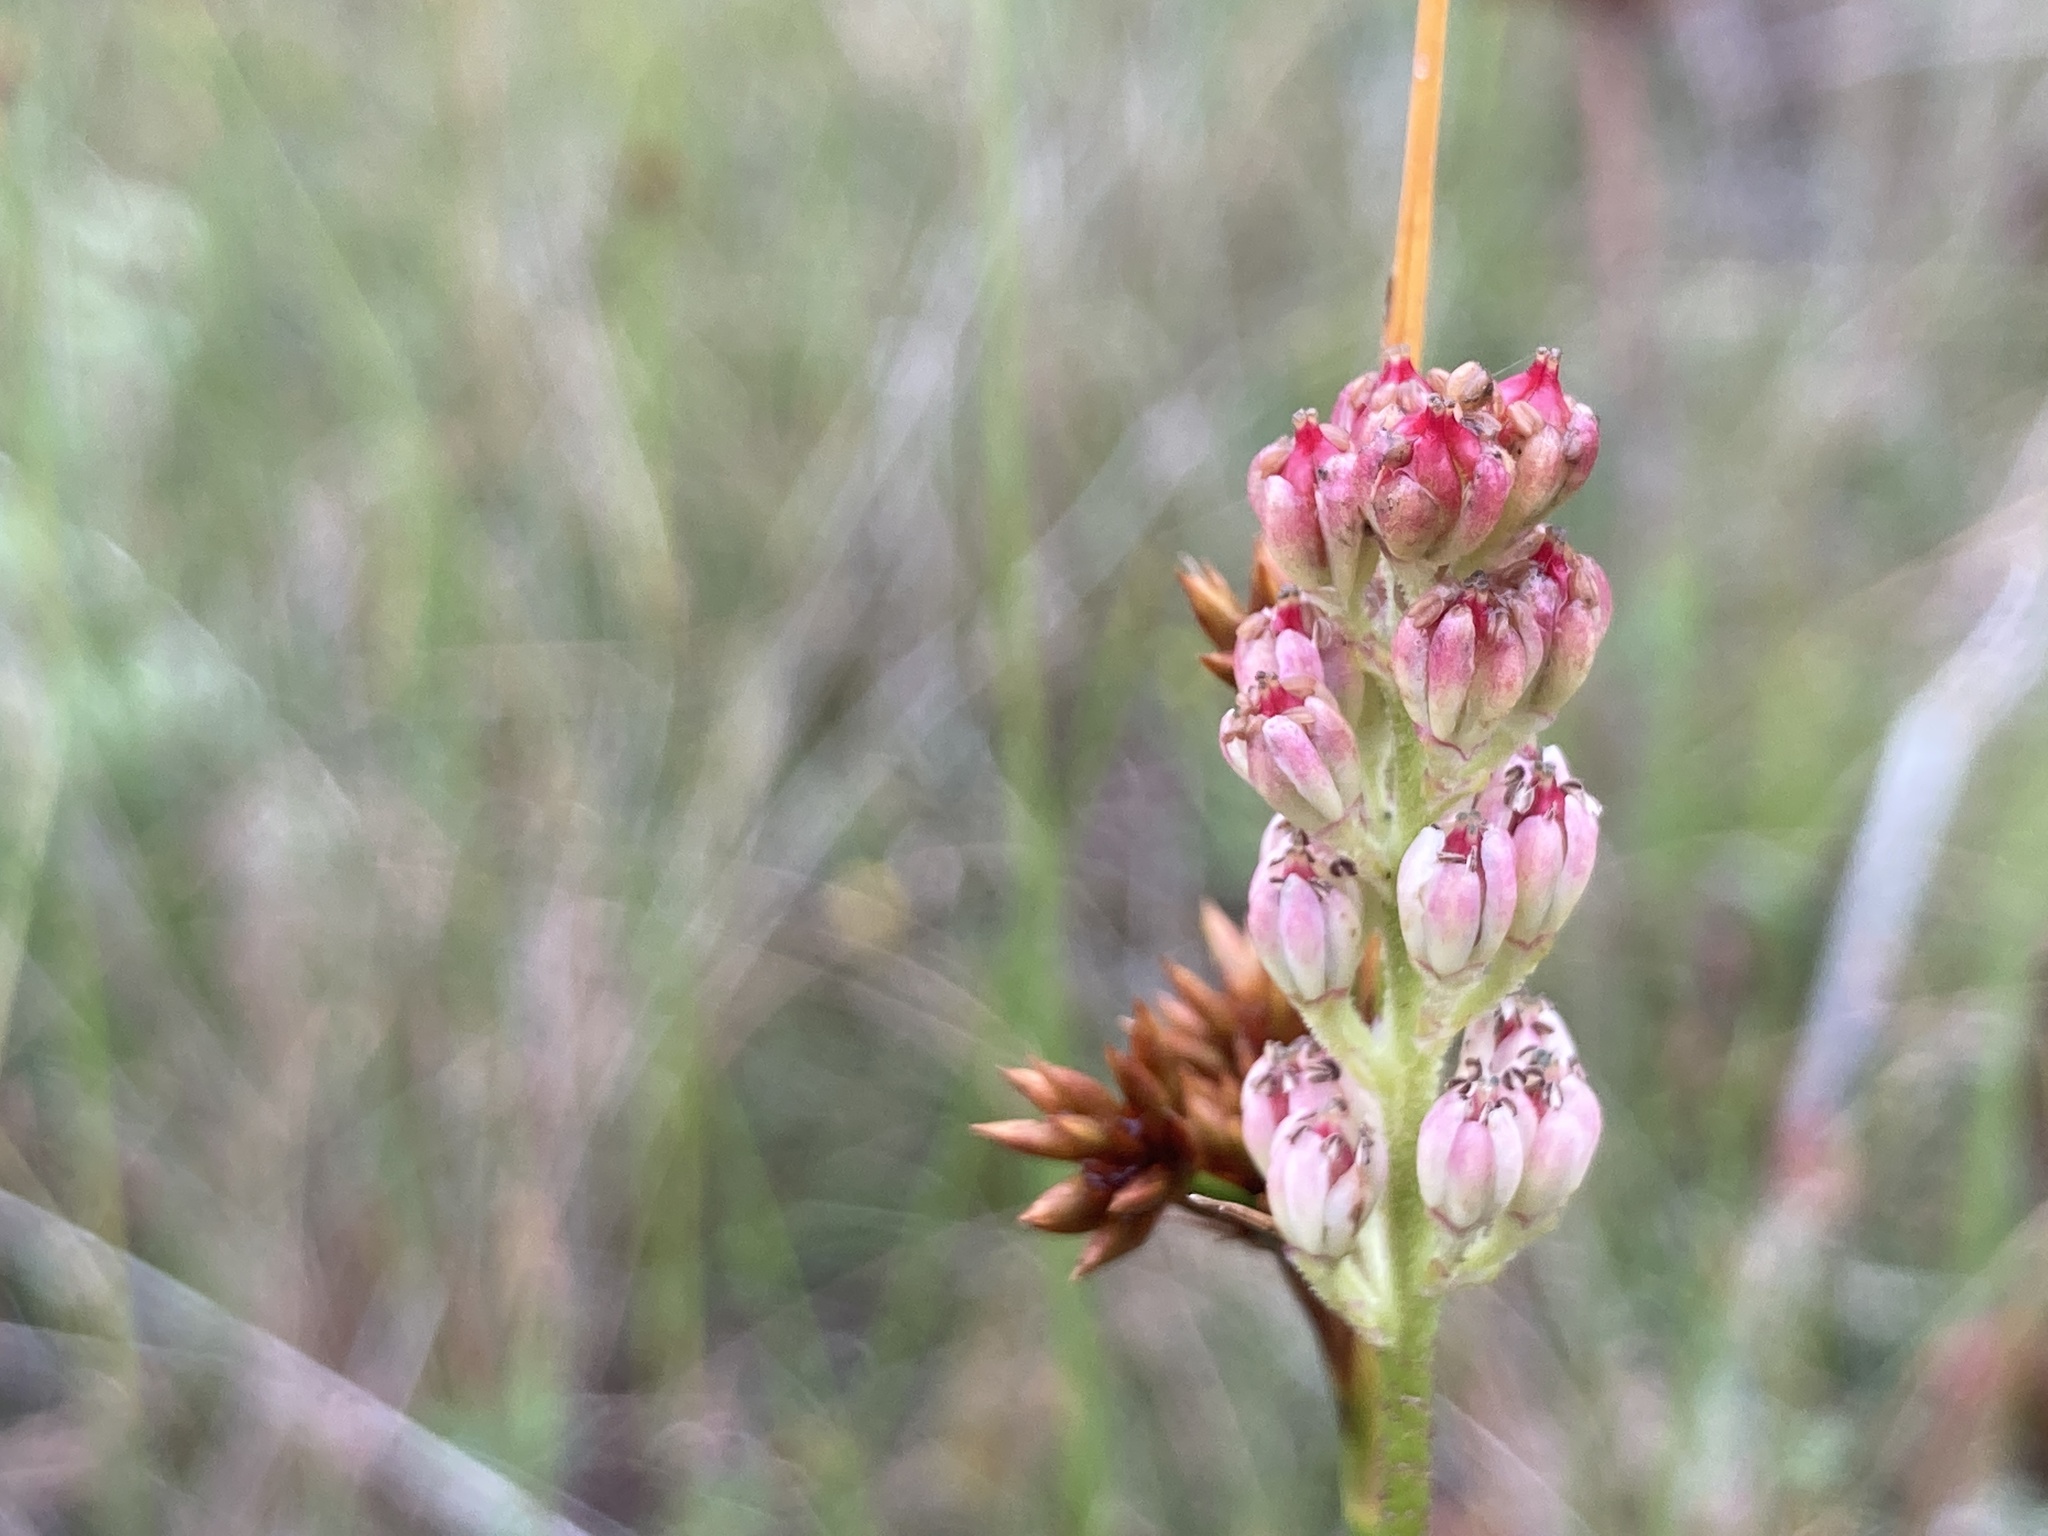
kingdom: Plantae
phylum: Tracheophyta
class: Liliopsida
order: Alismatales
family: Tofieldiaceae
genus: Triantha
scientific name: Triantha glutinosa
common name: Glutinous tofieldia
